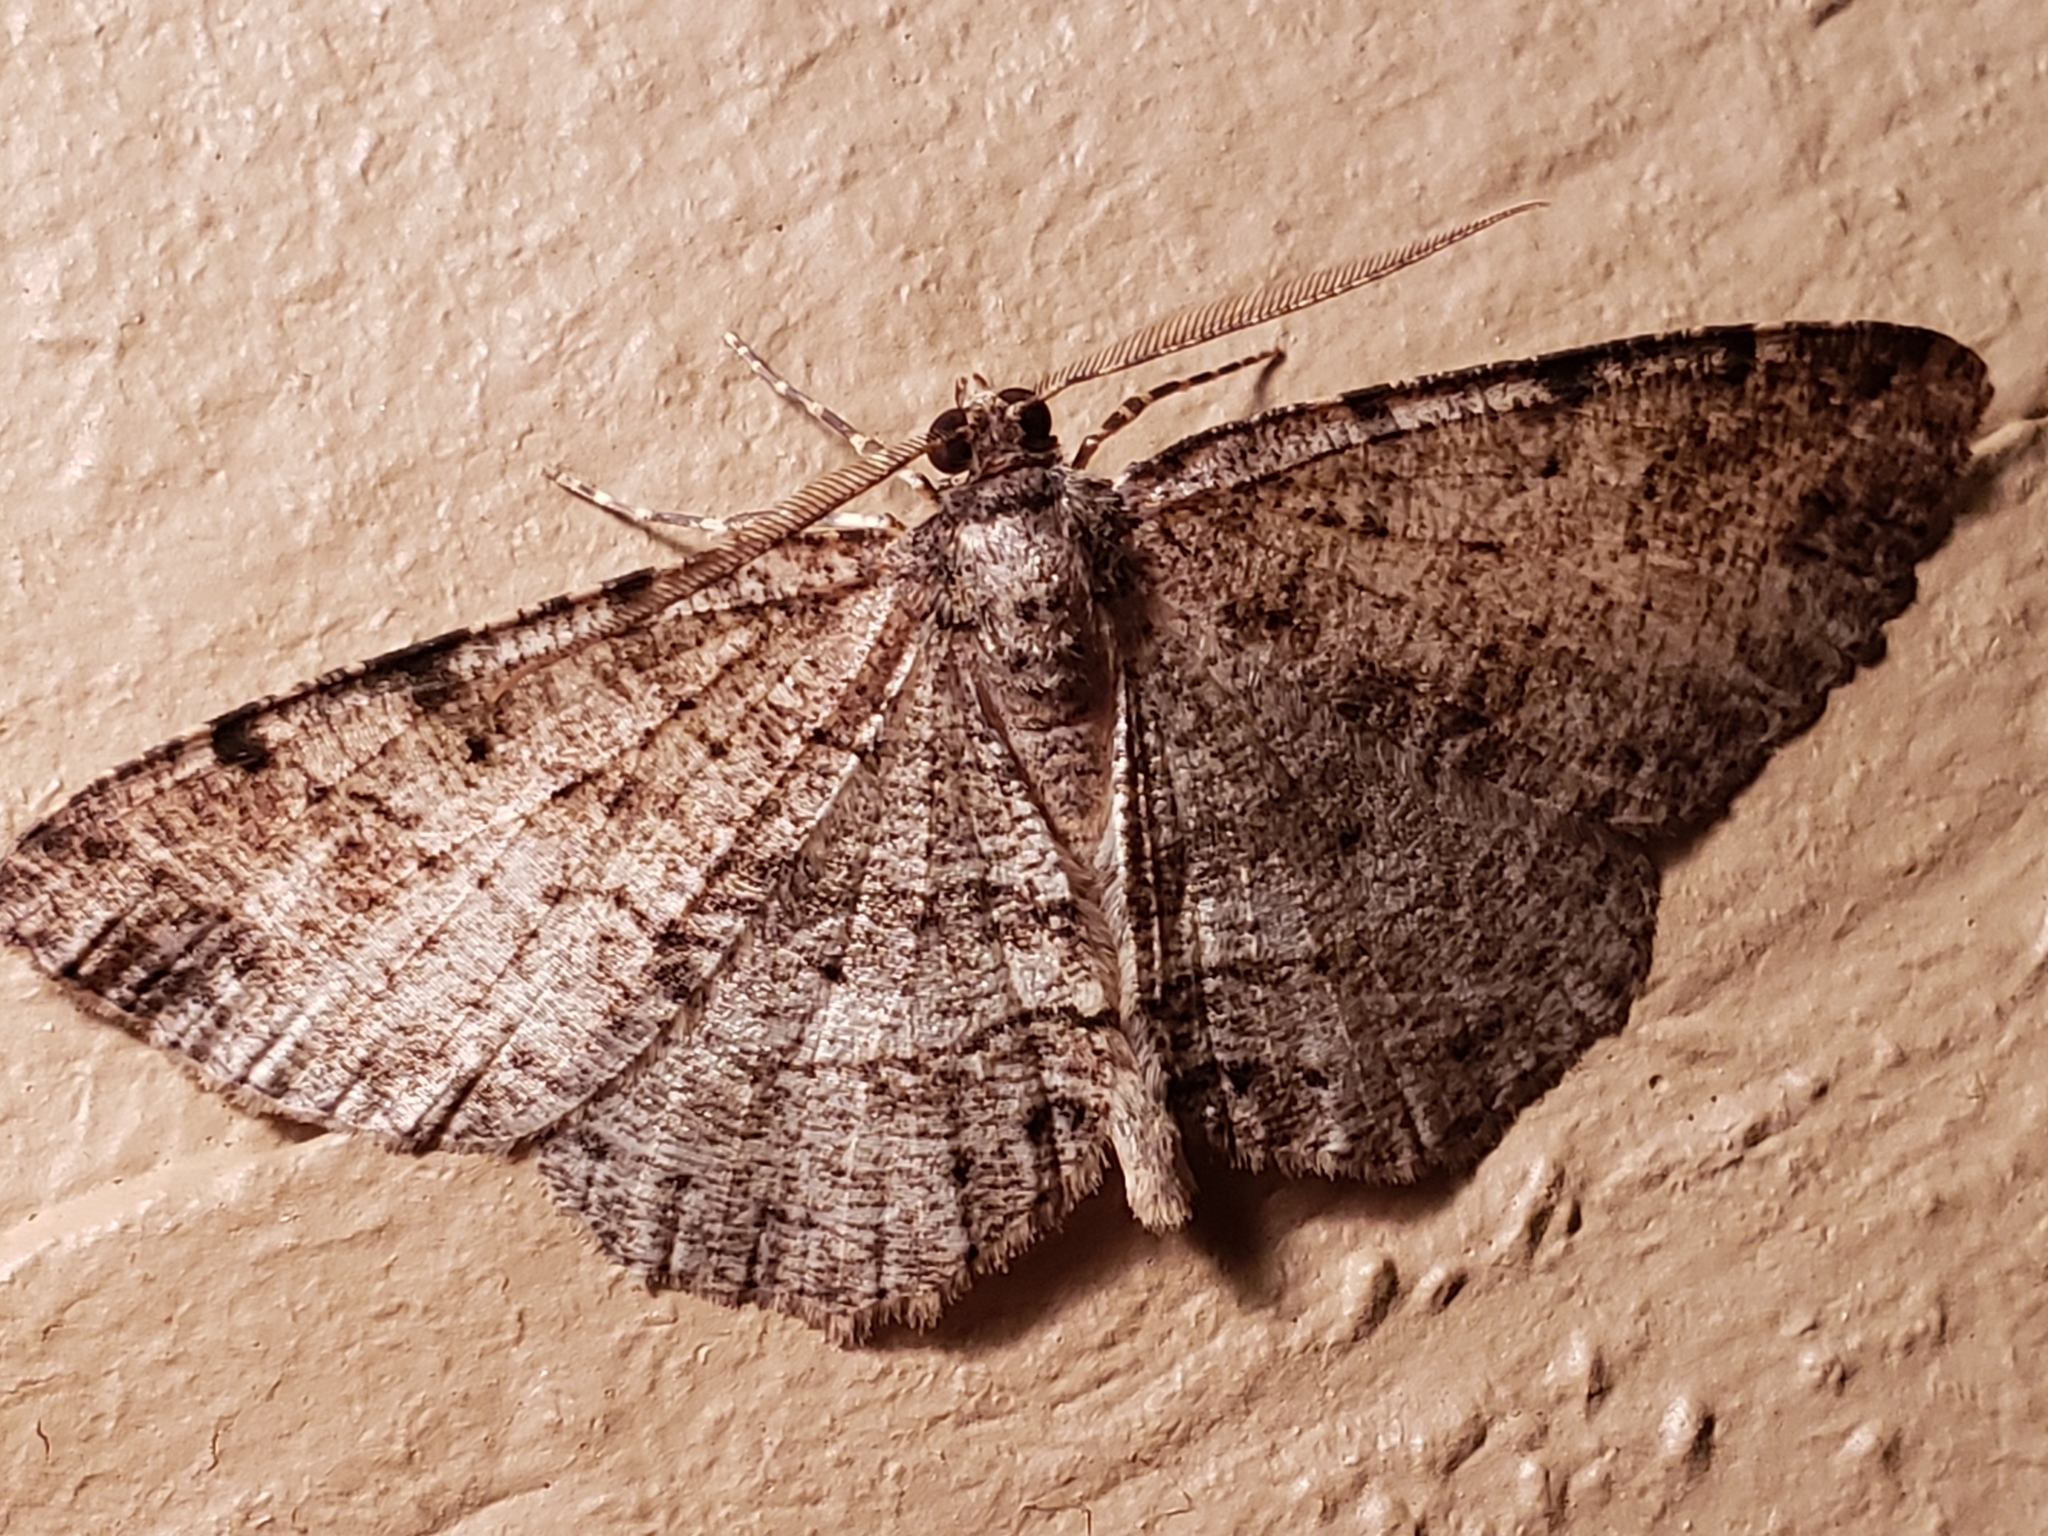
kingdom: Animalia
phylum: Arthropoda
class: Insecta
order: Lepidoptera
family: Geometridae
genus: Melanolophia
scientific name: Melanolophia canadaria
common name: Canadian melanolophia
